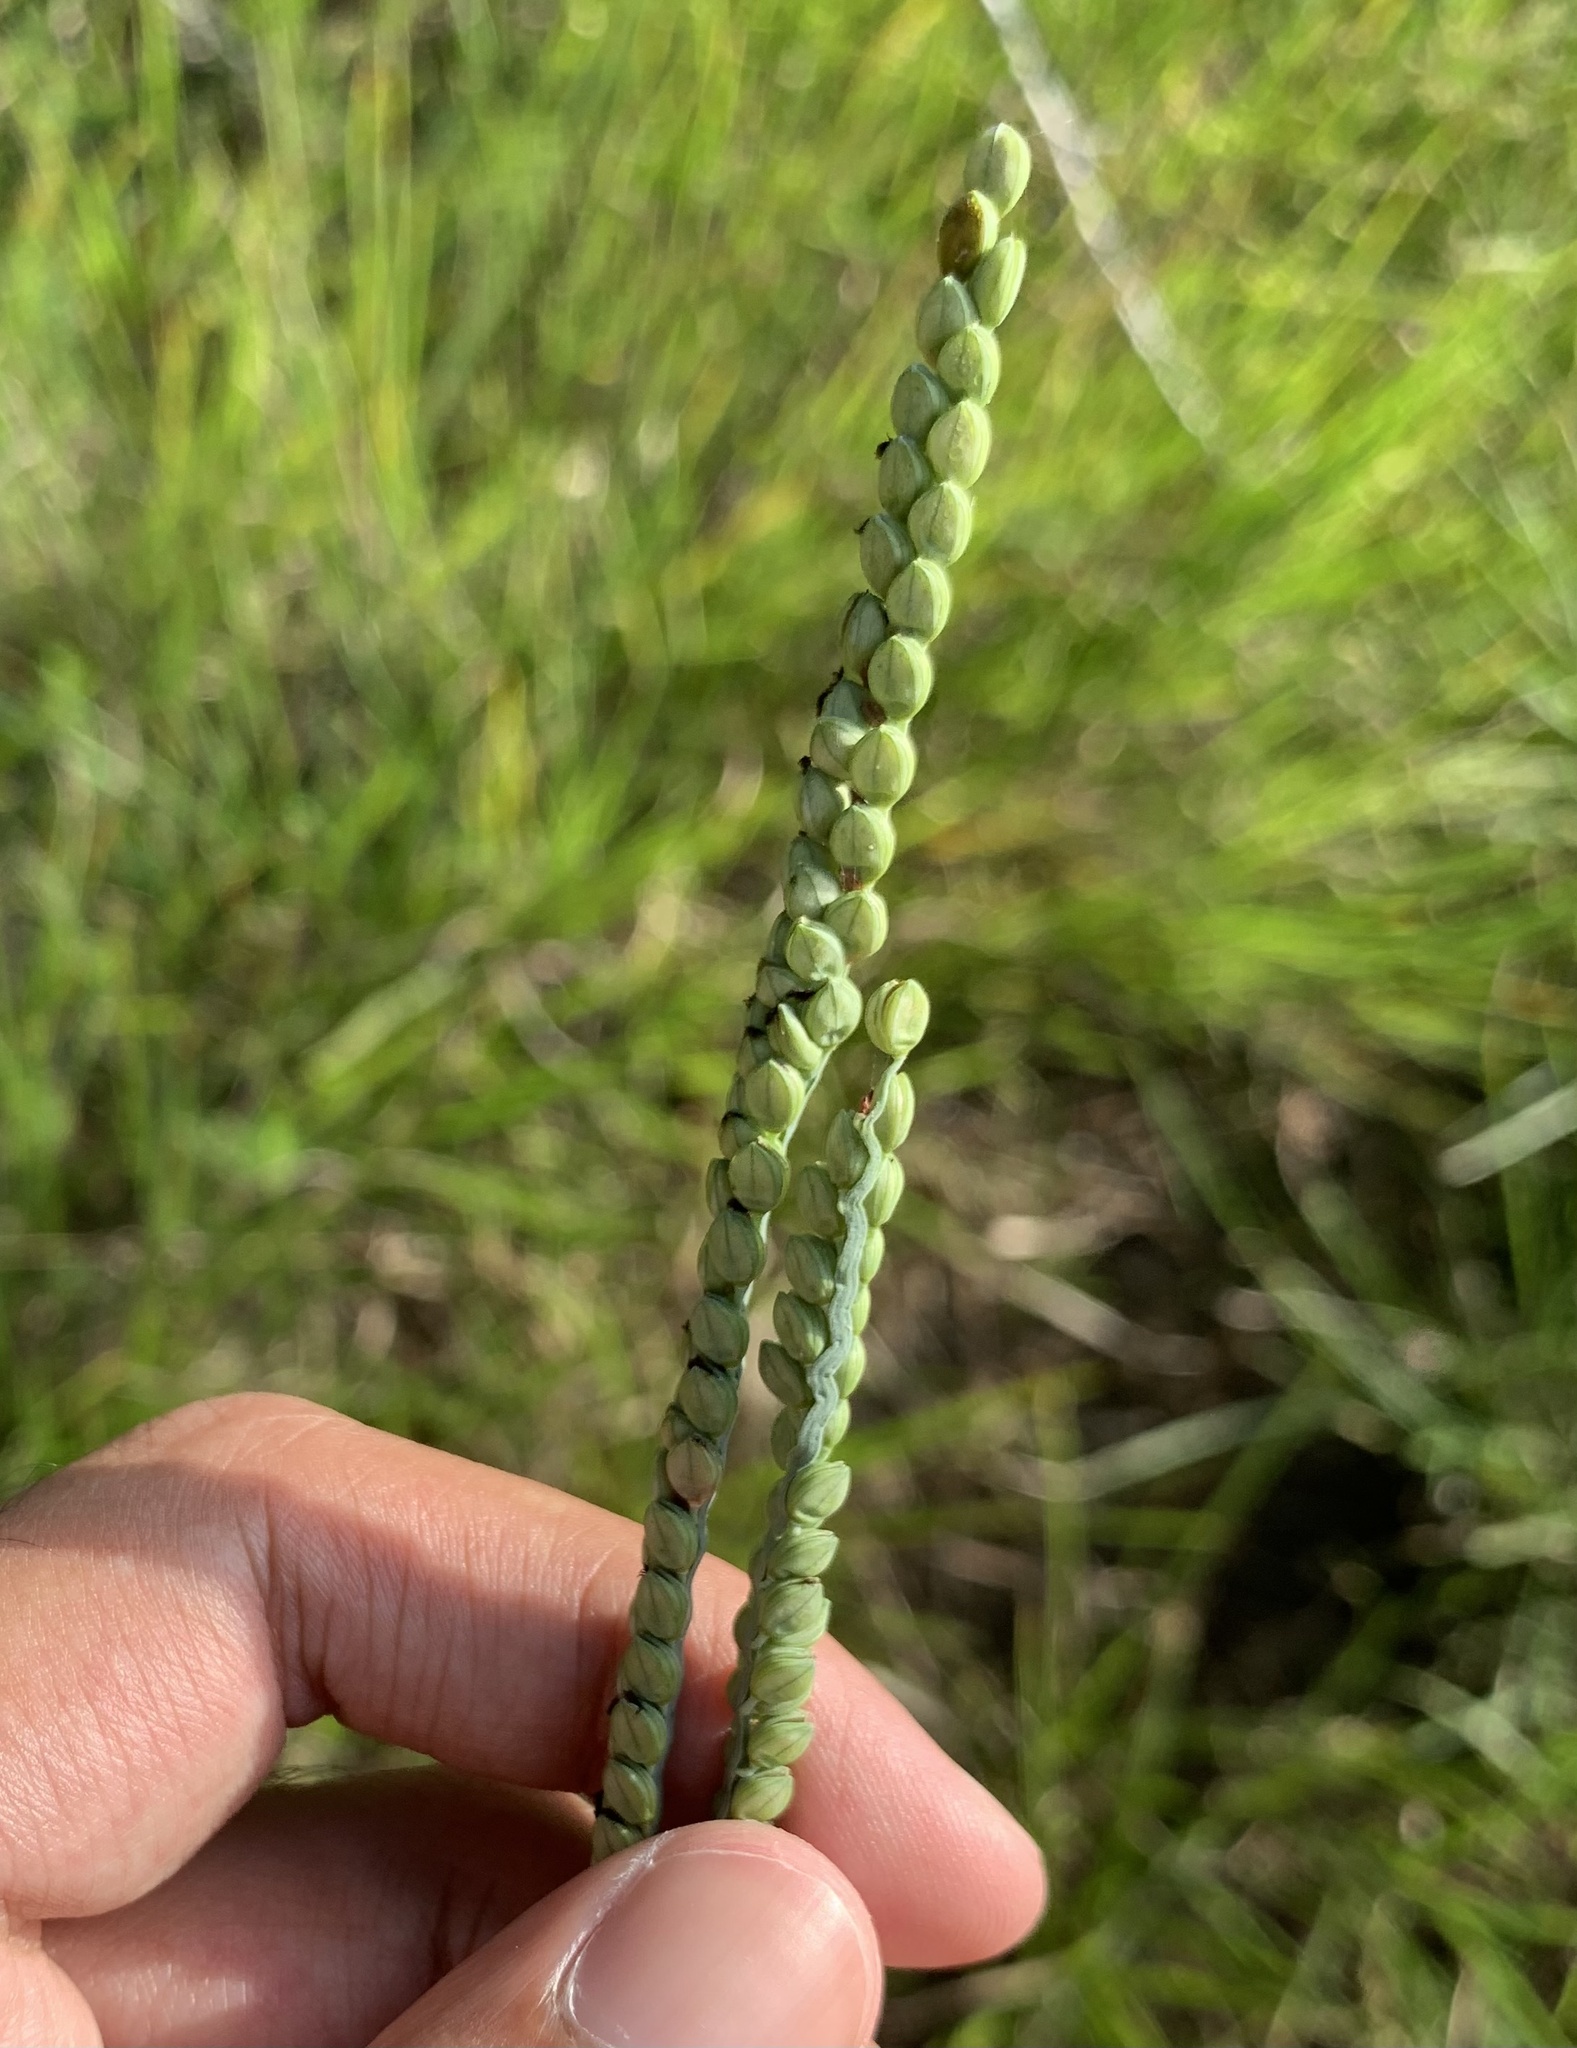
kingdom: Plantae
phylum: Tracheophyta
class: Liliopsida
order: Poales
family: Poaceae
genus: Paspalum
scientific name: Paspalum floridanum
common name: Florida paspalum
